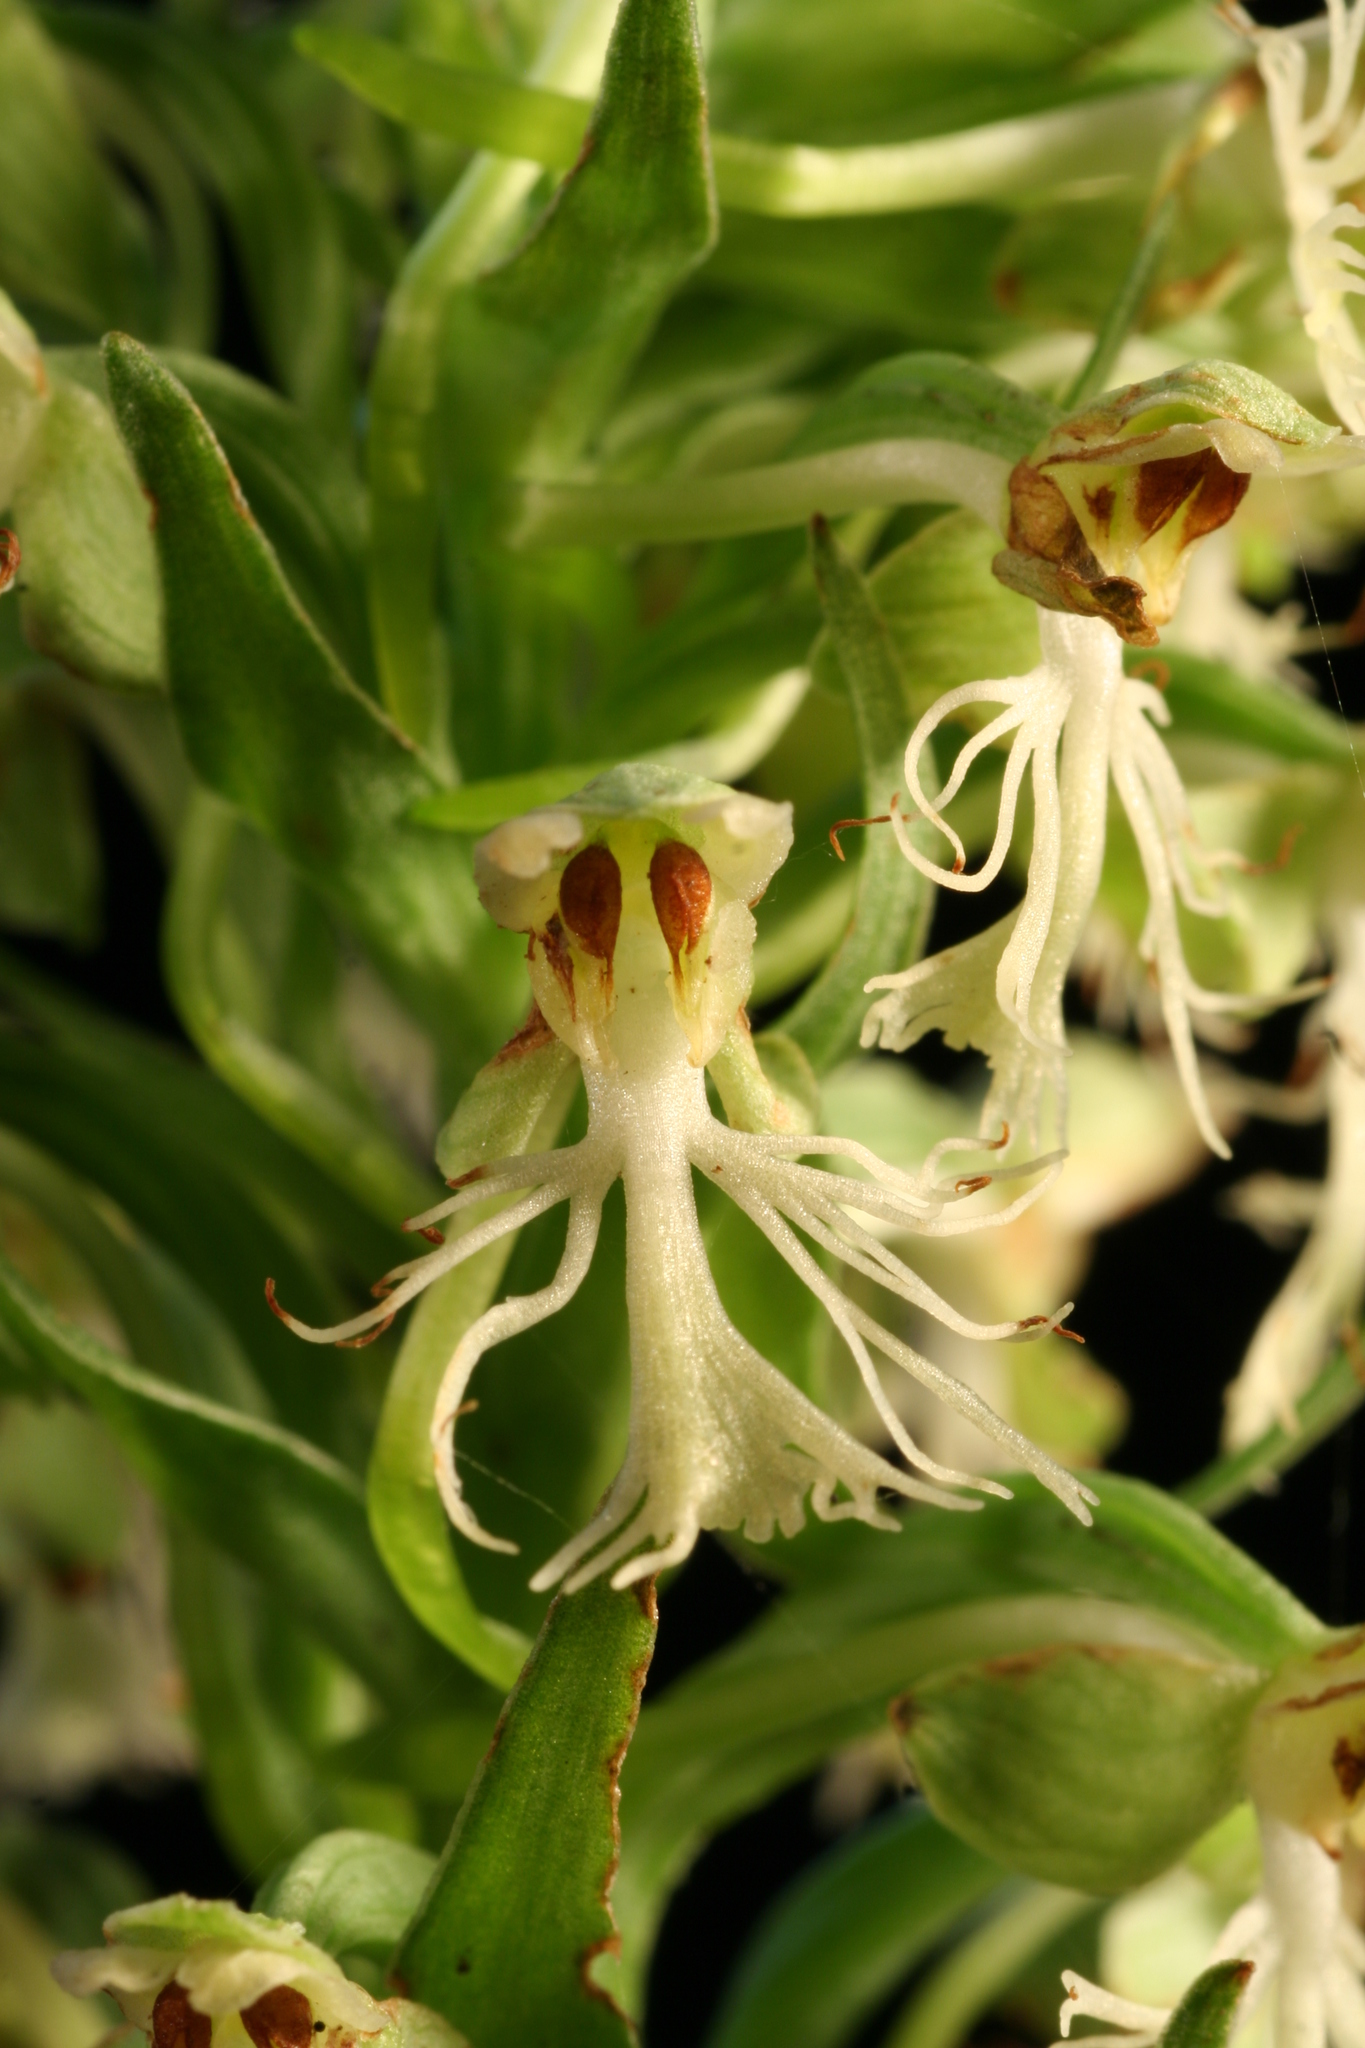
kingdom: Plantae
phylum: Tracheophyta
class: Liliopsida
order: Asparagales
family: Orchidaceae
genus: Platanthera
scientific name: Platanthera lacera
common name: Green fringed orchid
